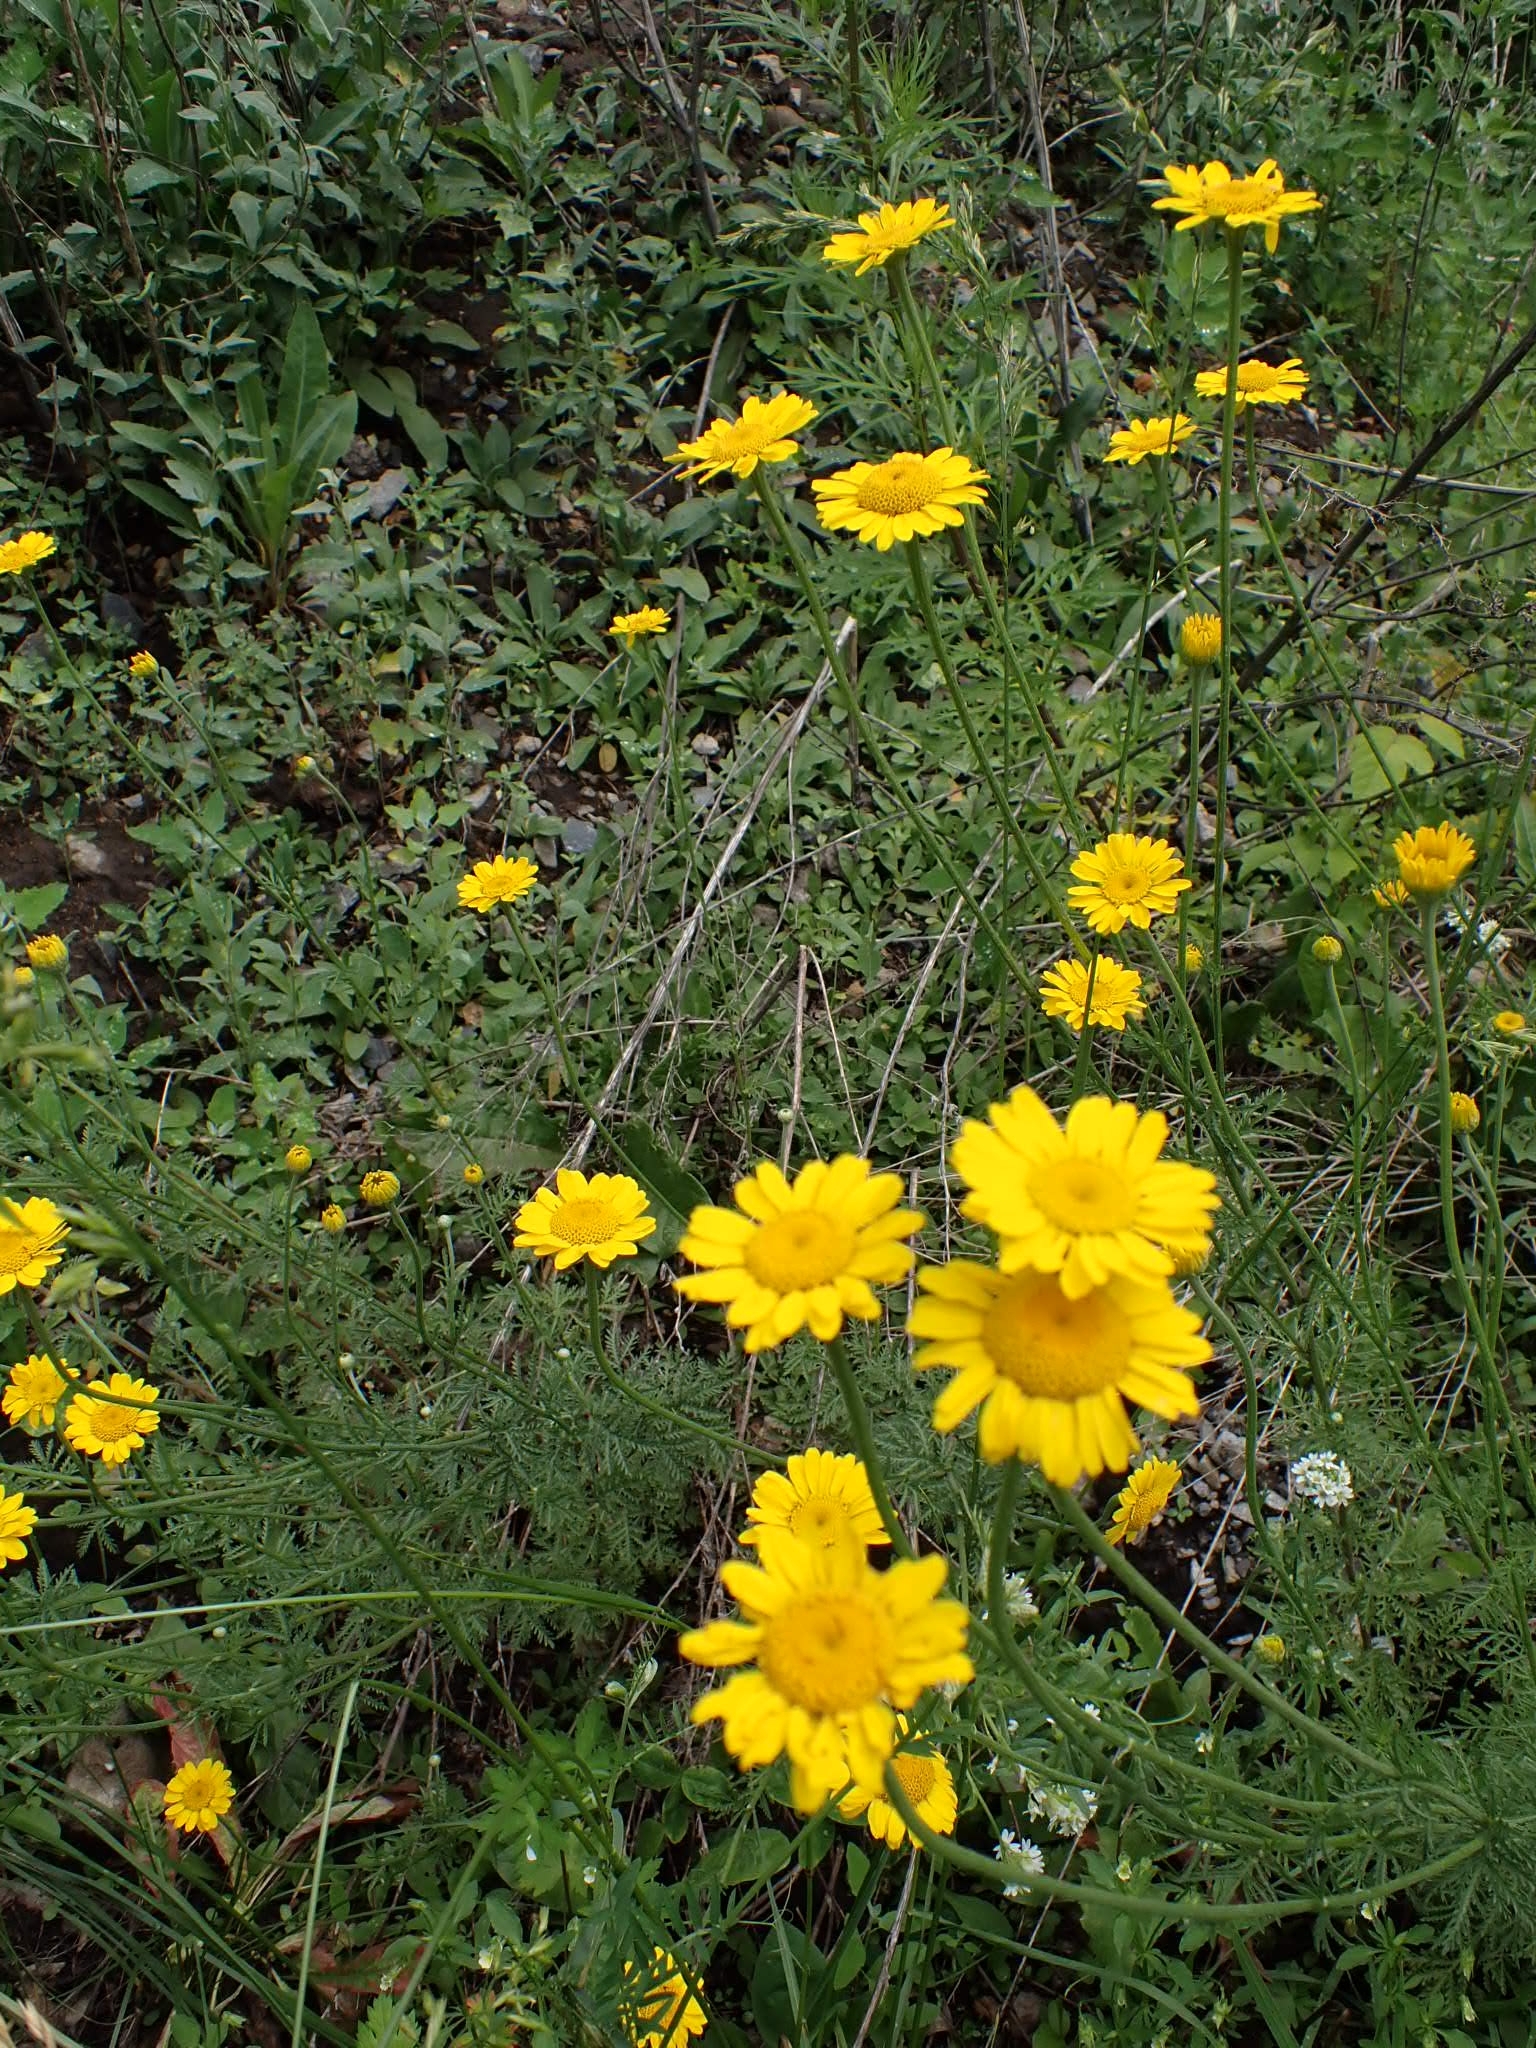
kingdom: Plantae
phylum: Tracheophyta
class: Magnoliopsida
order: Asterales
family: Asteraceae
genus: Cota
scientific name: Cota tinctoria
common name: Golden chamomile
